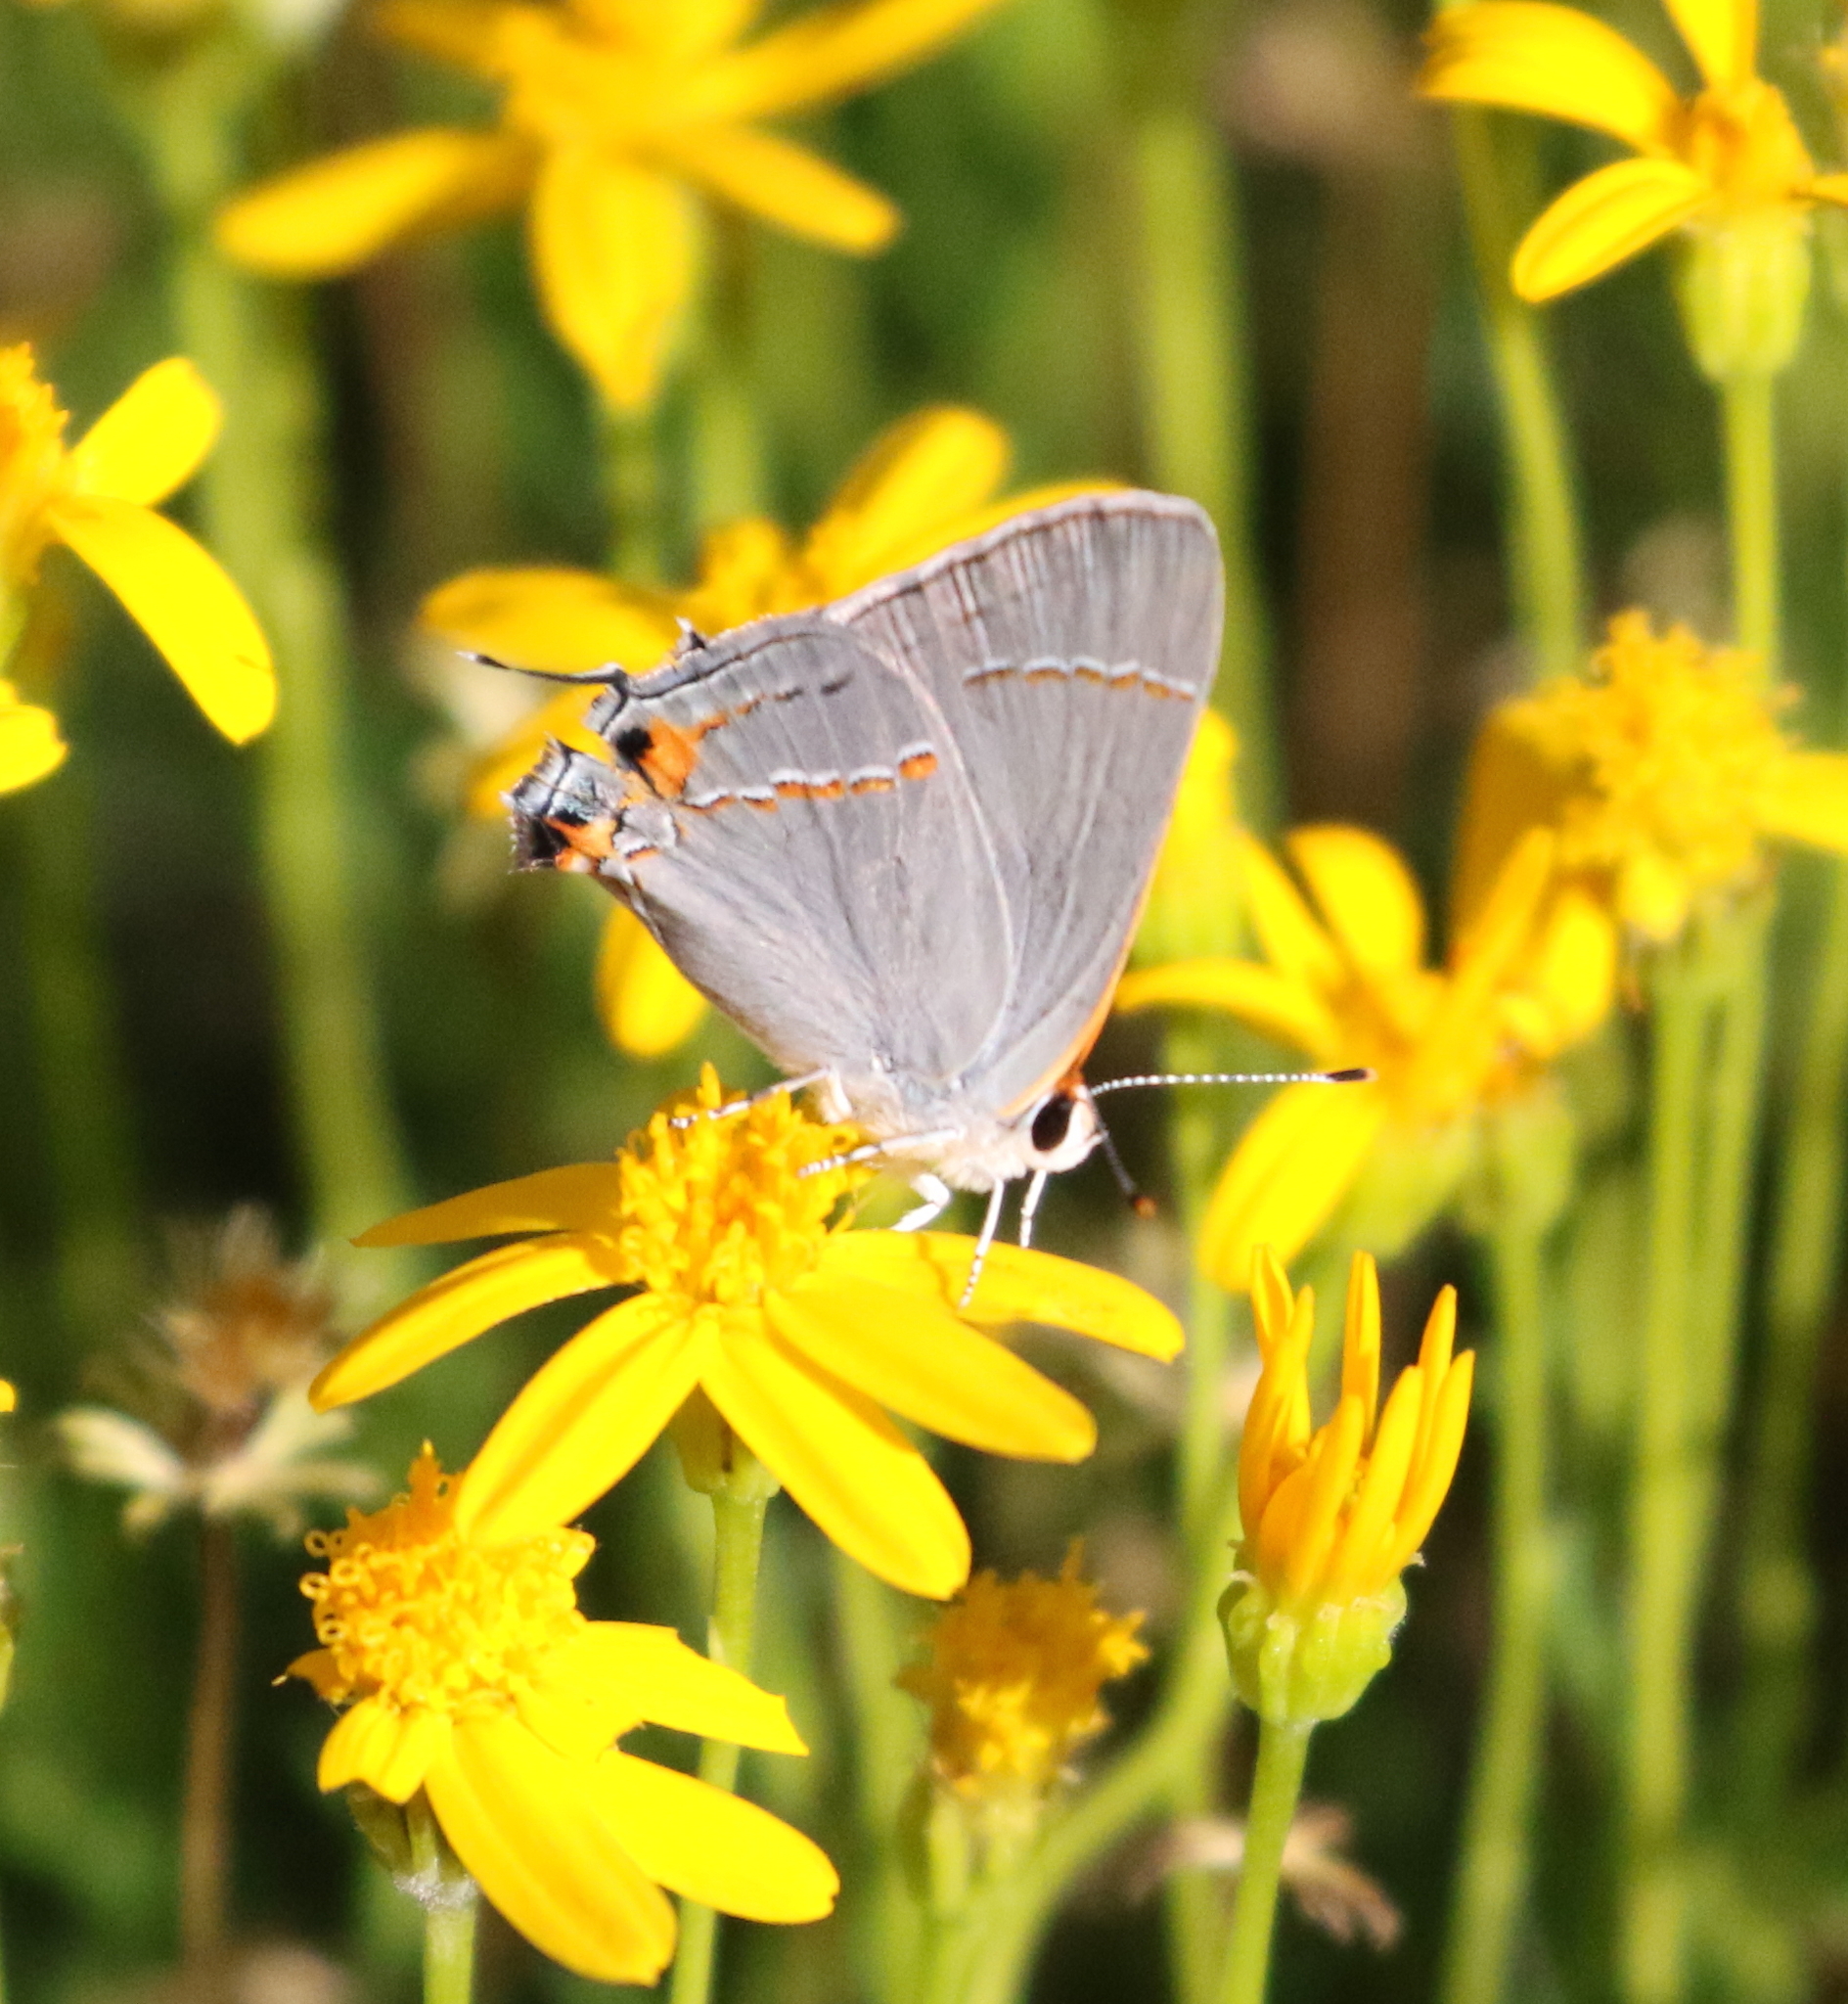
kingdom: Animalia
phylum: Arthropoda
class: Insecta
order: Lepidoptera
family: Lycaenidae
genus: Strymon
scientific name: Strymon melinus
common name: Gray hairstreak
